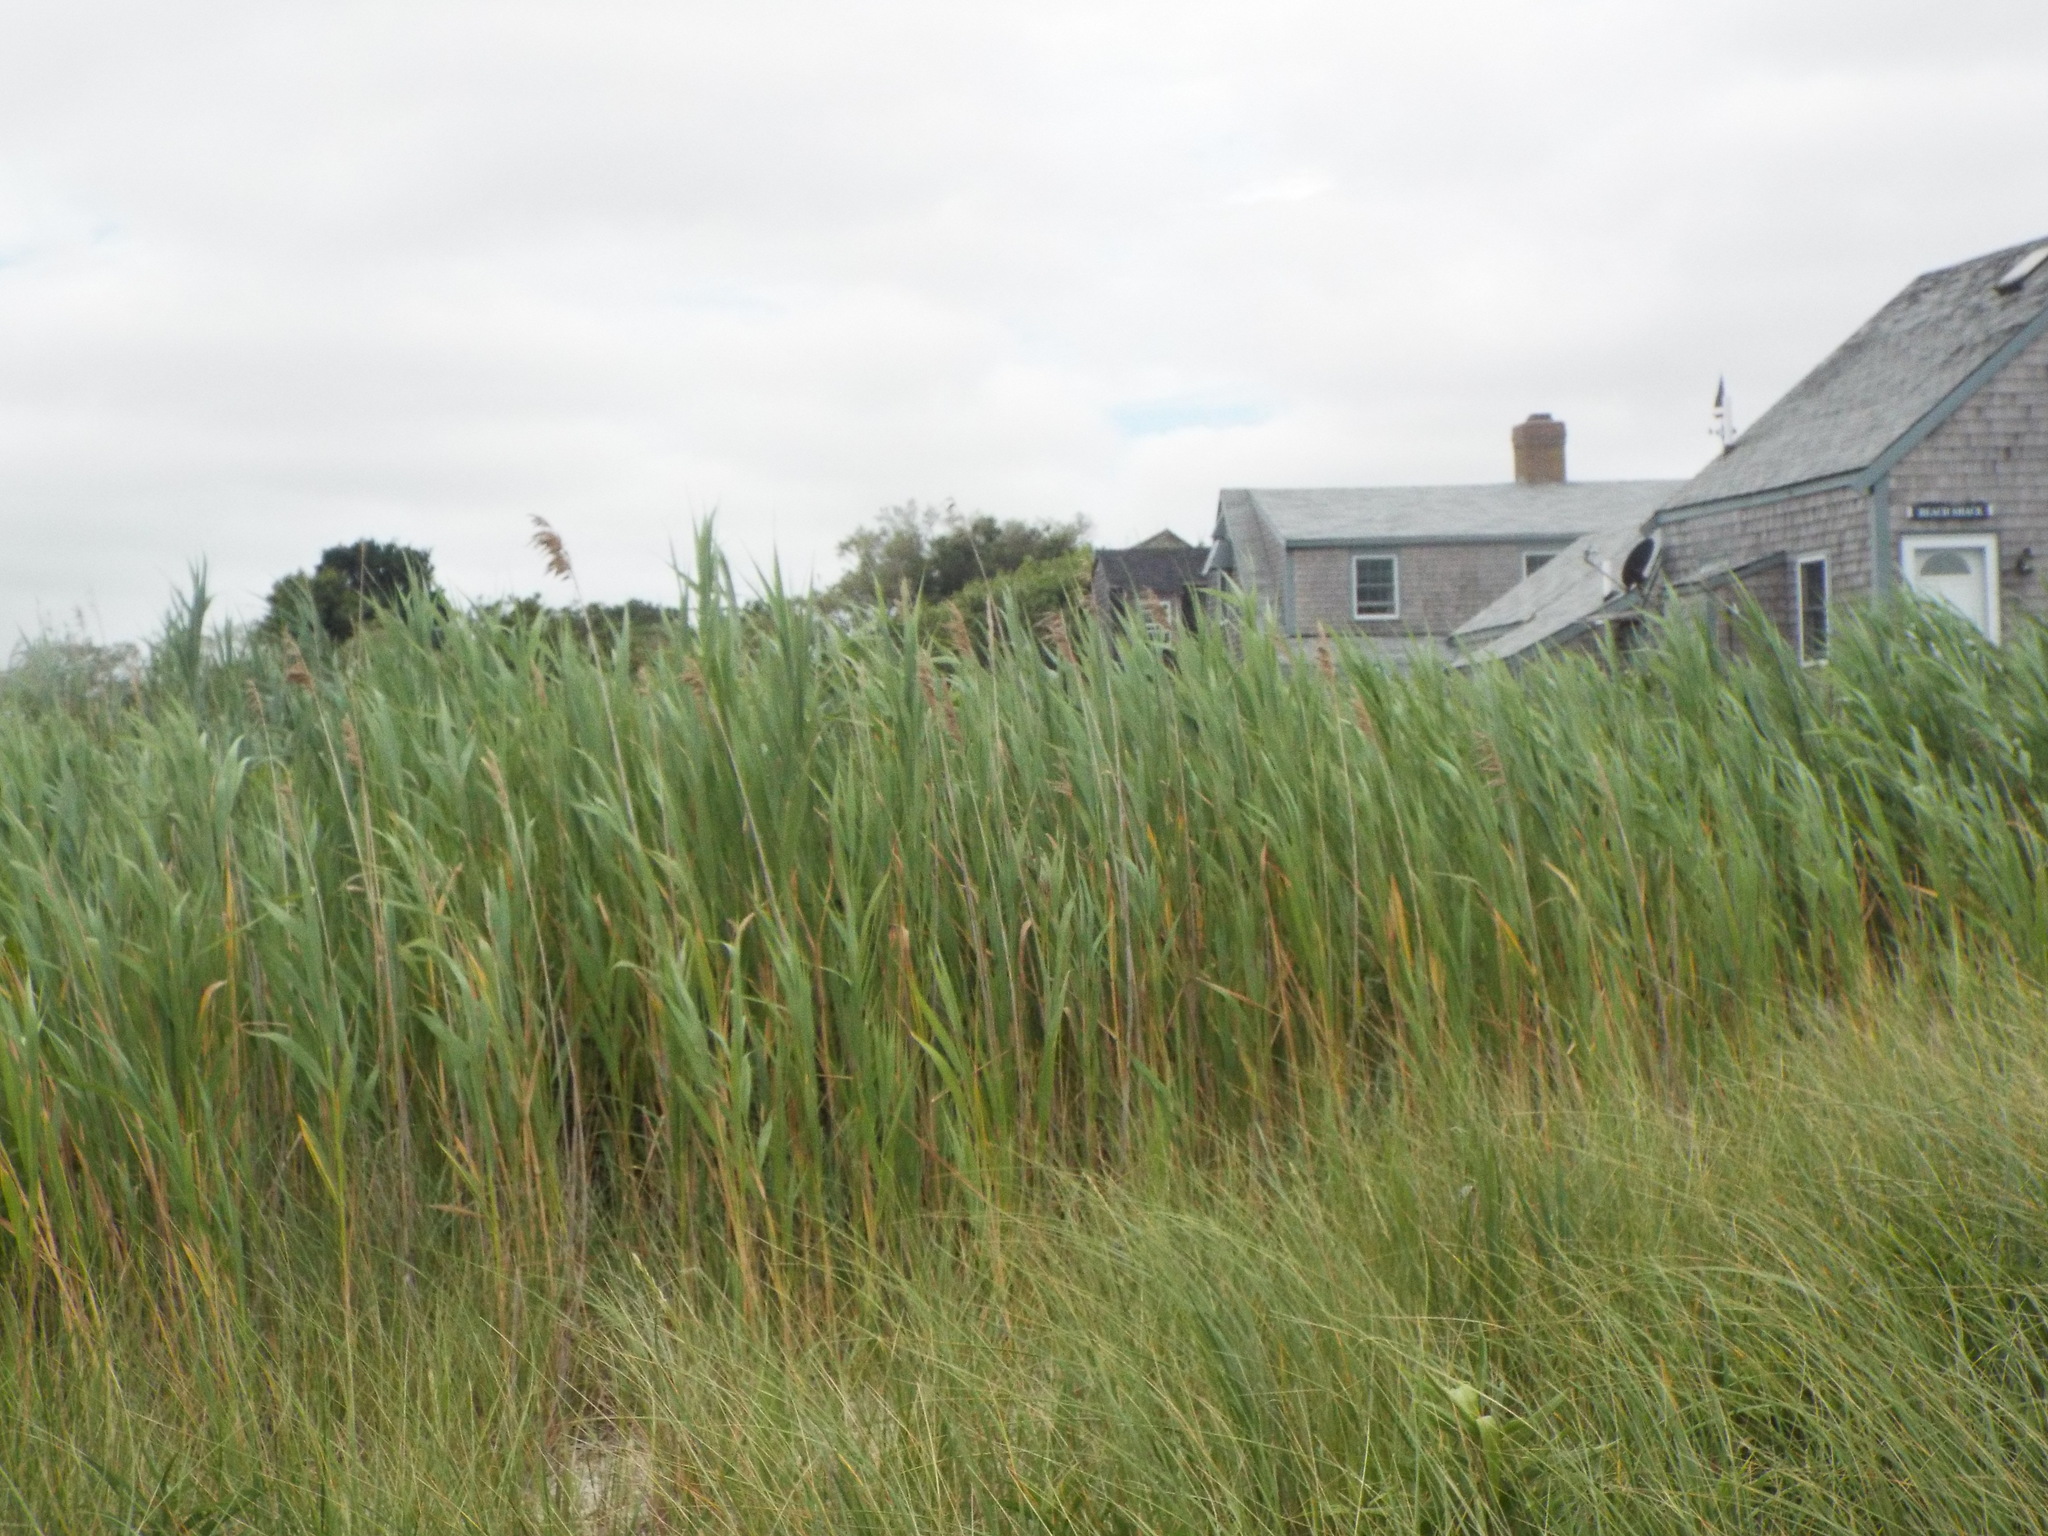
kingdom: Plantae
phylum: Tracheophyta
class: Liliopsida
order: Poales
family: Poaceae
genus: Phragmites
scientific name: Phragmites australis
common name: Common reed
